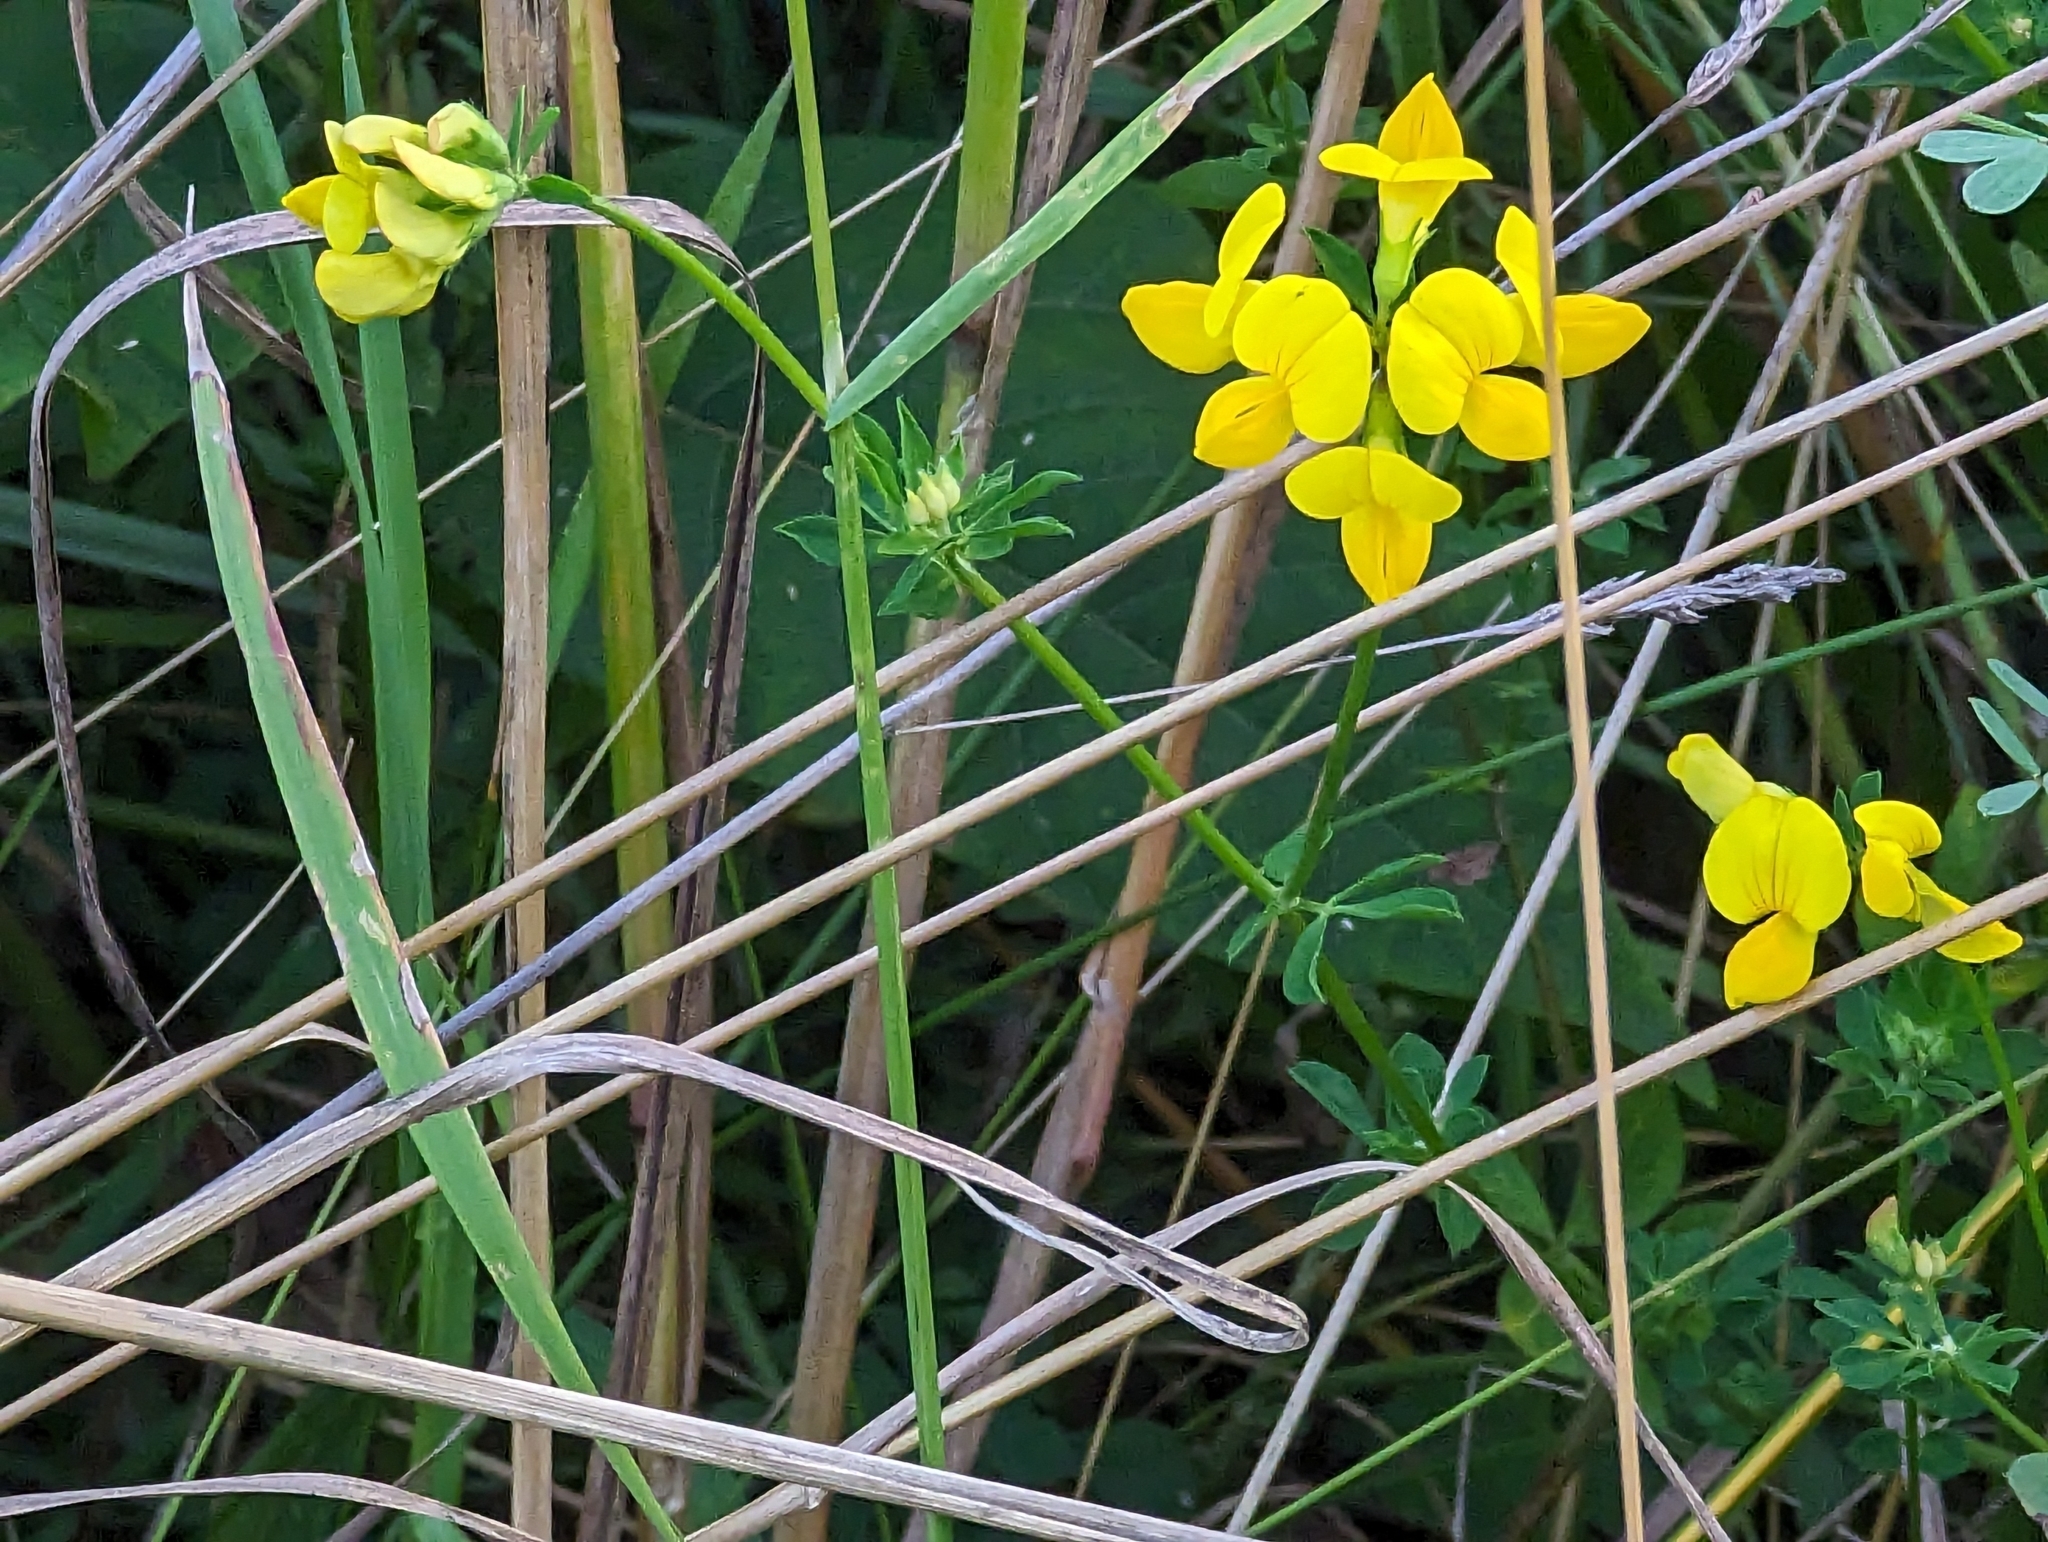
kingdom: Plantae
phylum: Tracheophyta
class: Magnoliopsida
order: Fabales
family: Fabaceae
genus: Lotus
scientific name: Lotus corniculatus
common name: Common bird's-foot-trefoil
